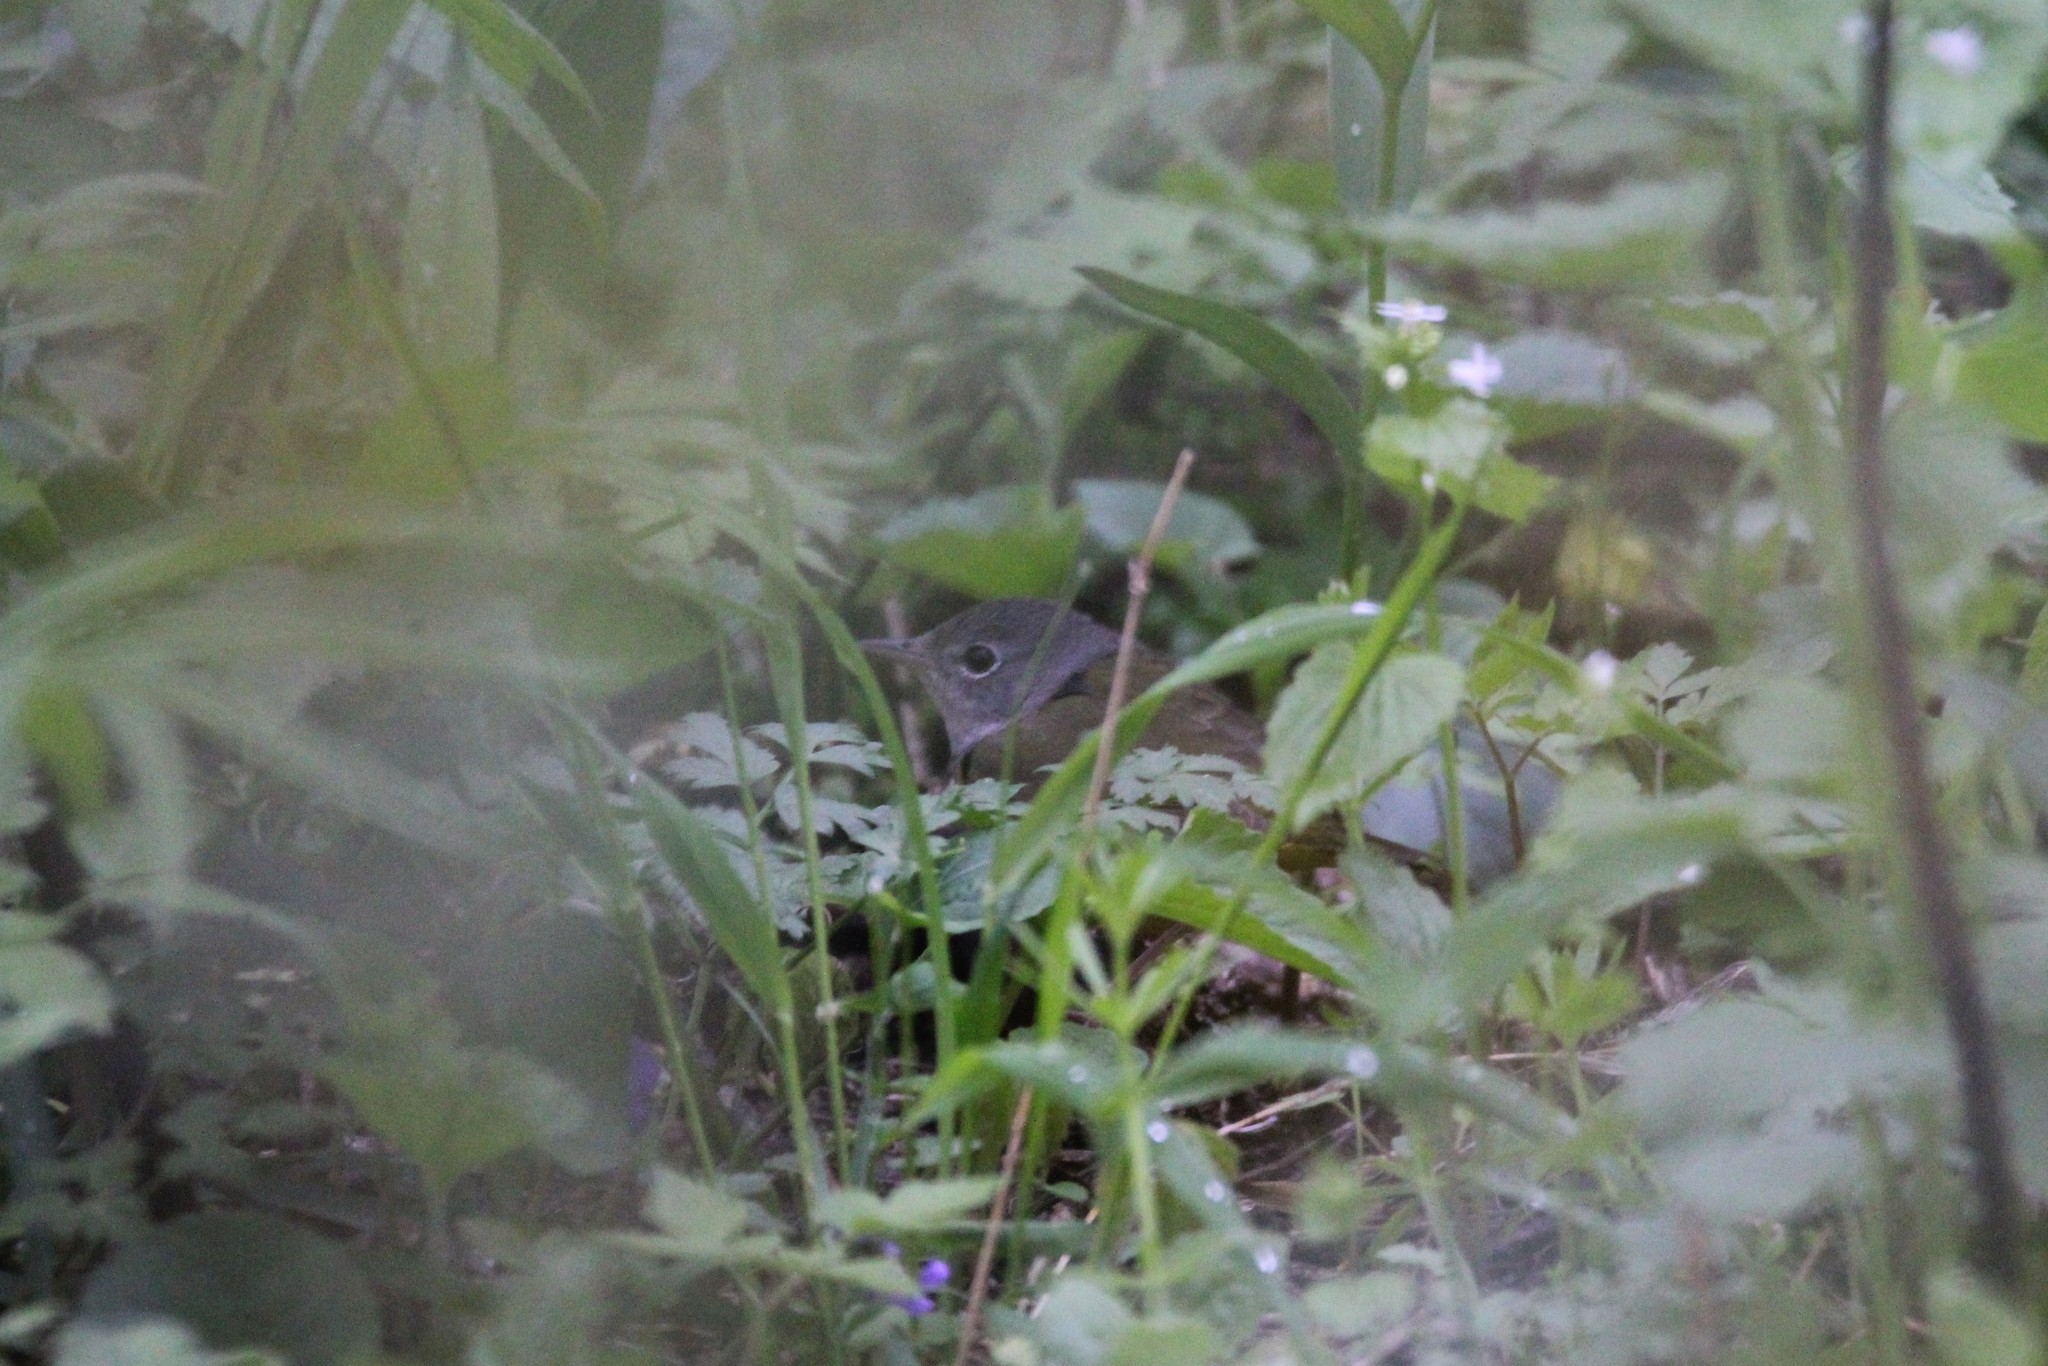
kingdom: Animalia
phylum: Chordata
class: Aves
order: Passeriformes
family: Parulidae
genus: Geothlypis
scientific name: Geothlypis philadelphia
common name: Mourning warbler
